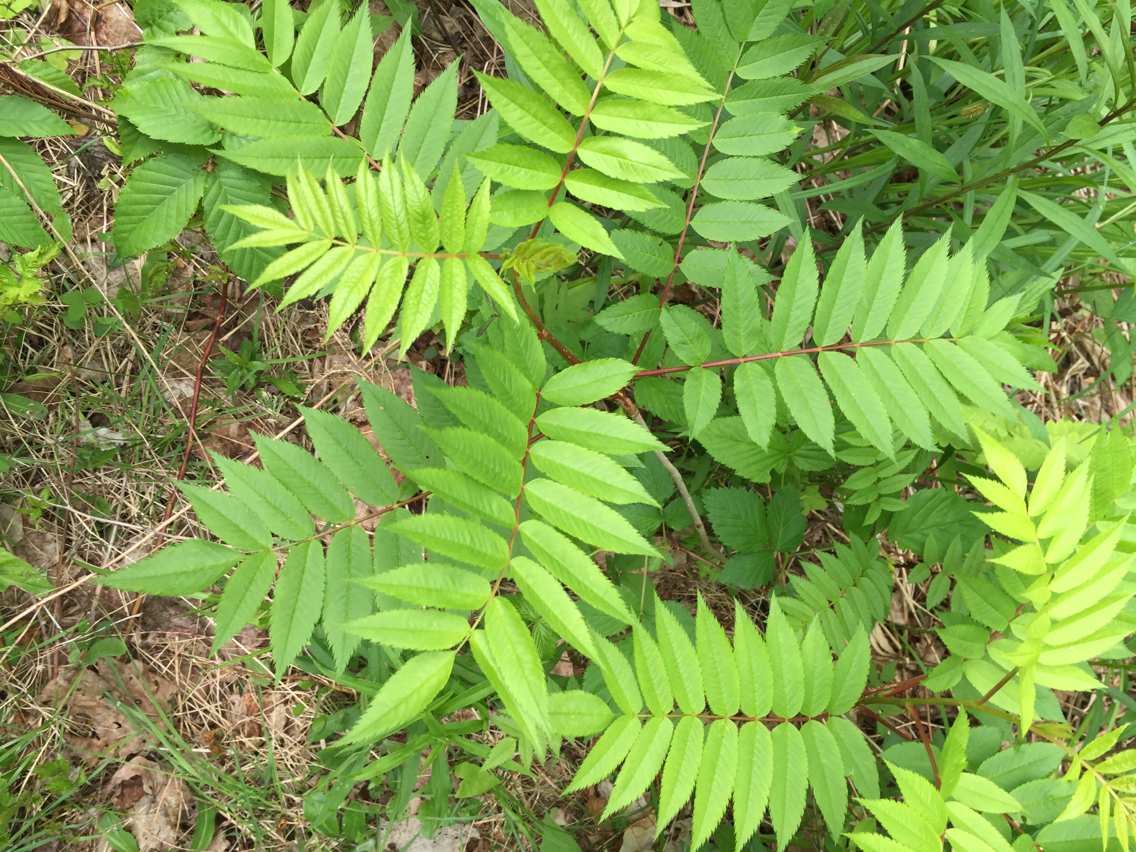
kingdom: Plantae
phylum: Tracheophyta
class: Magnoliopsida
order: Rosales
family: Rosaceae
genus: Sorbus
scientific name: Sorbus americana
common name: American mountain-ash
